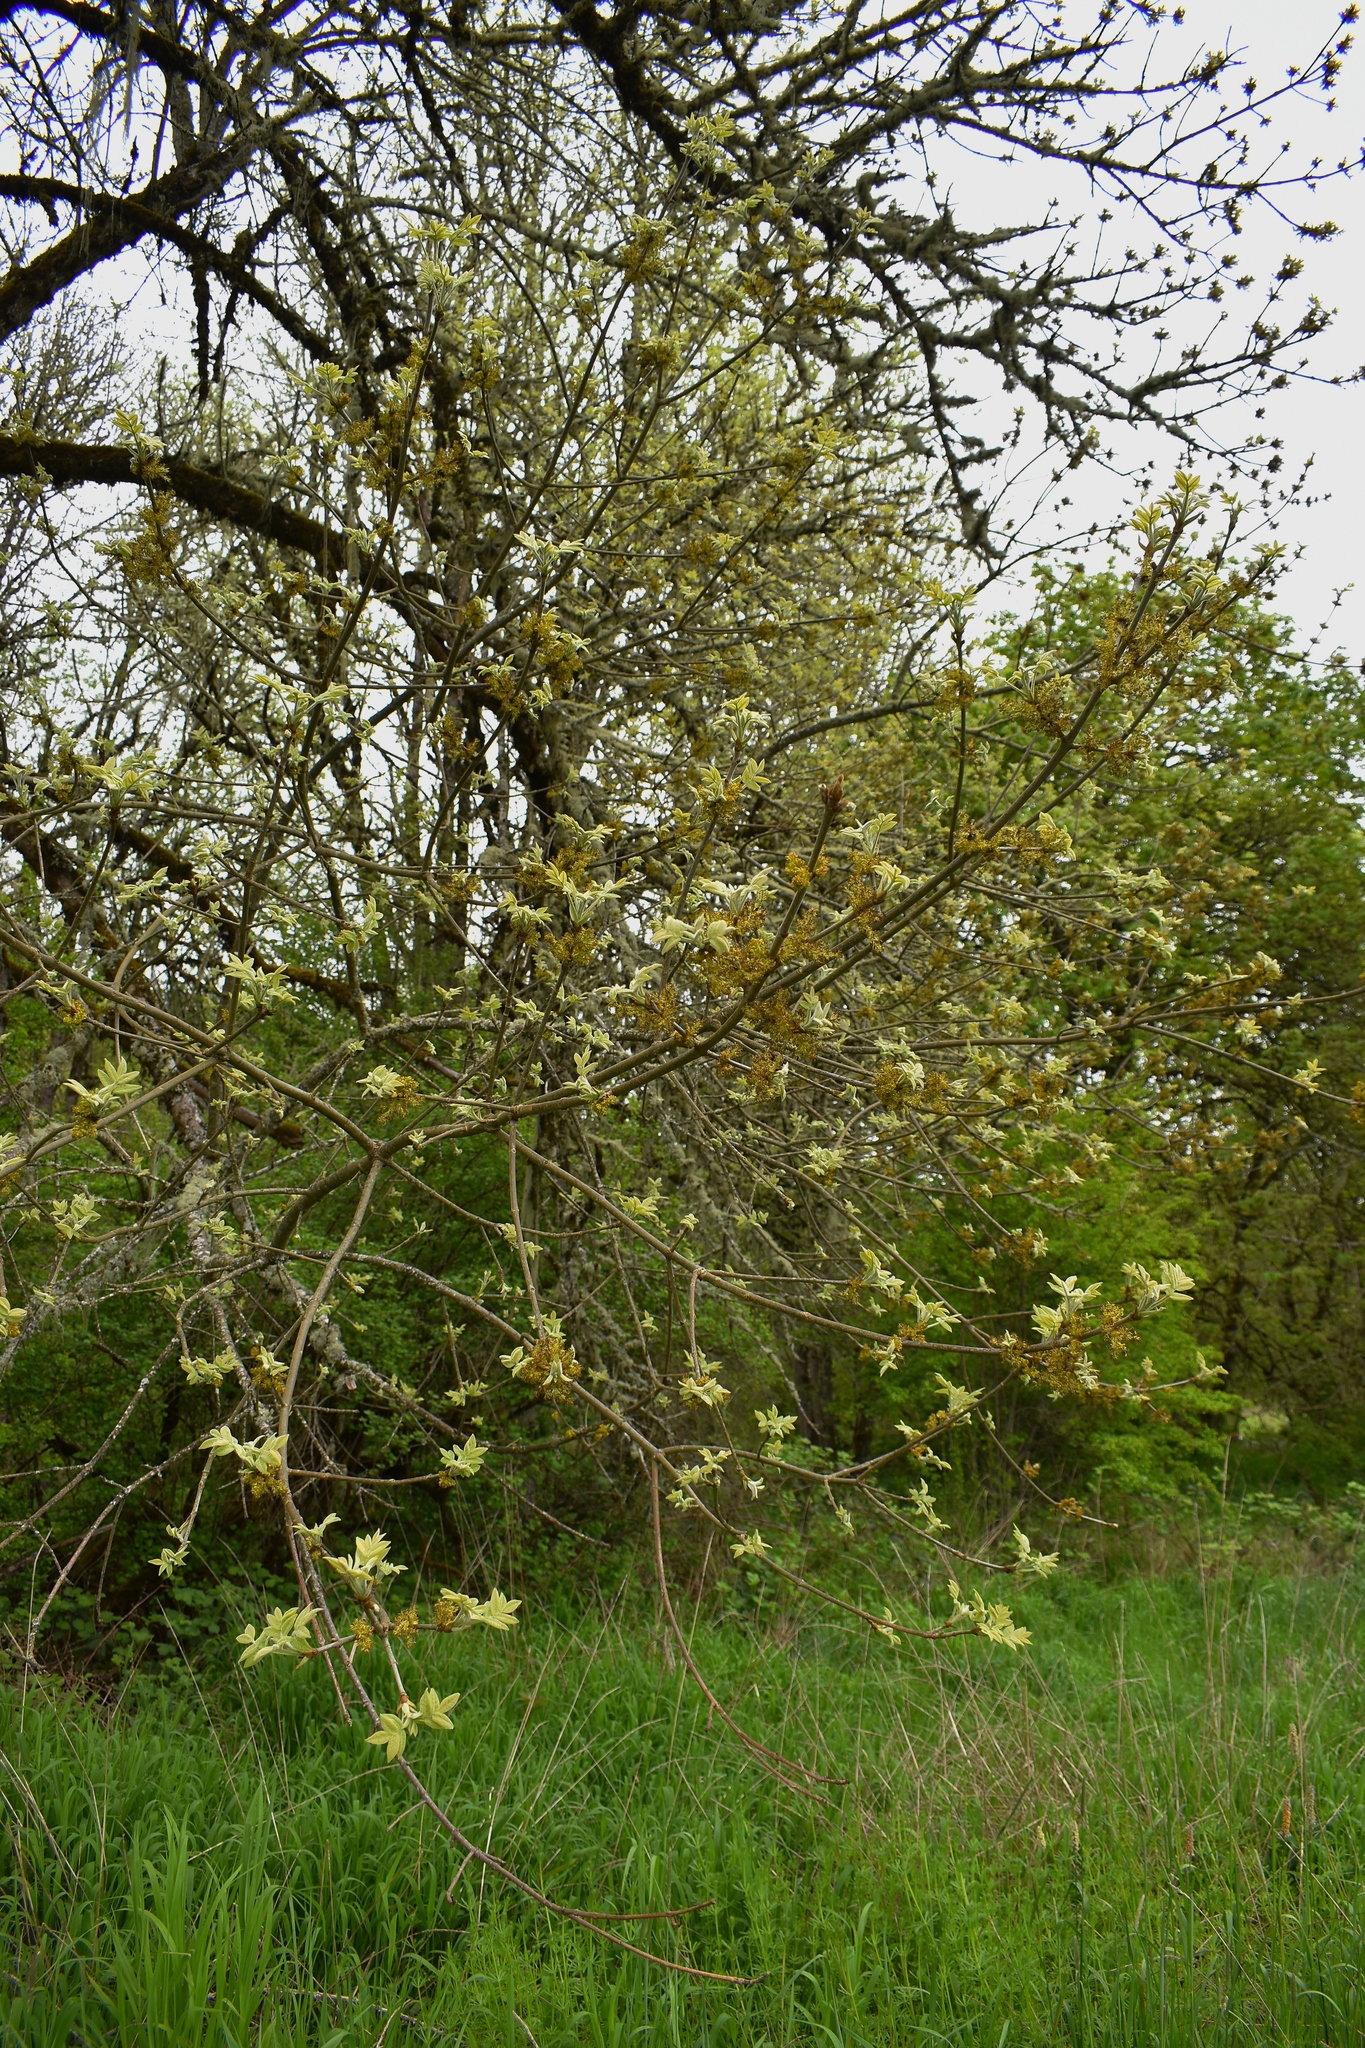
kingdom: Plantae
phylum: Tracheophyta
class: Magnoliopsida
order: Lamiales
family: Oleaceae
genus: Fraxinus
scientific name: Fraxinus latifolia
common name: Oregon ash
